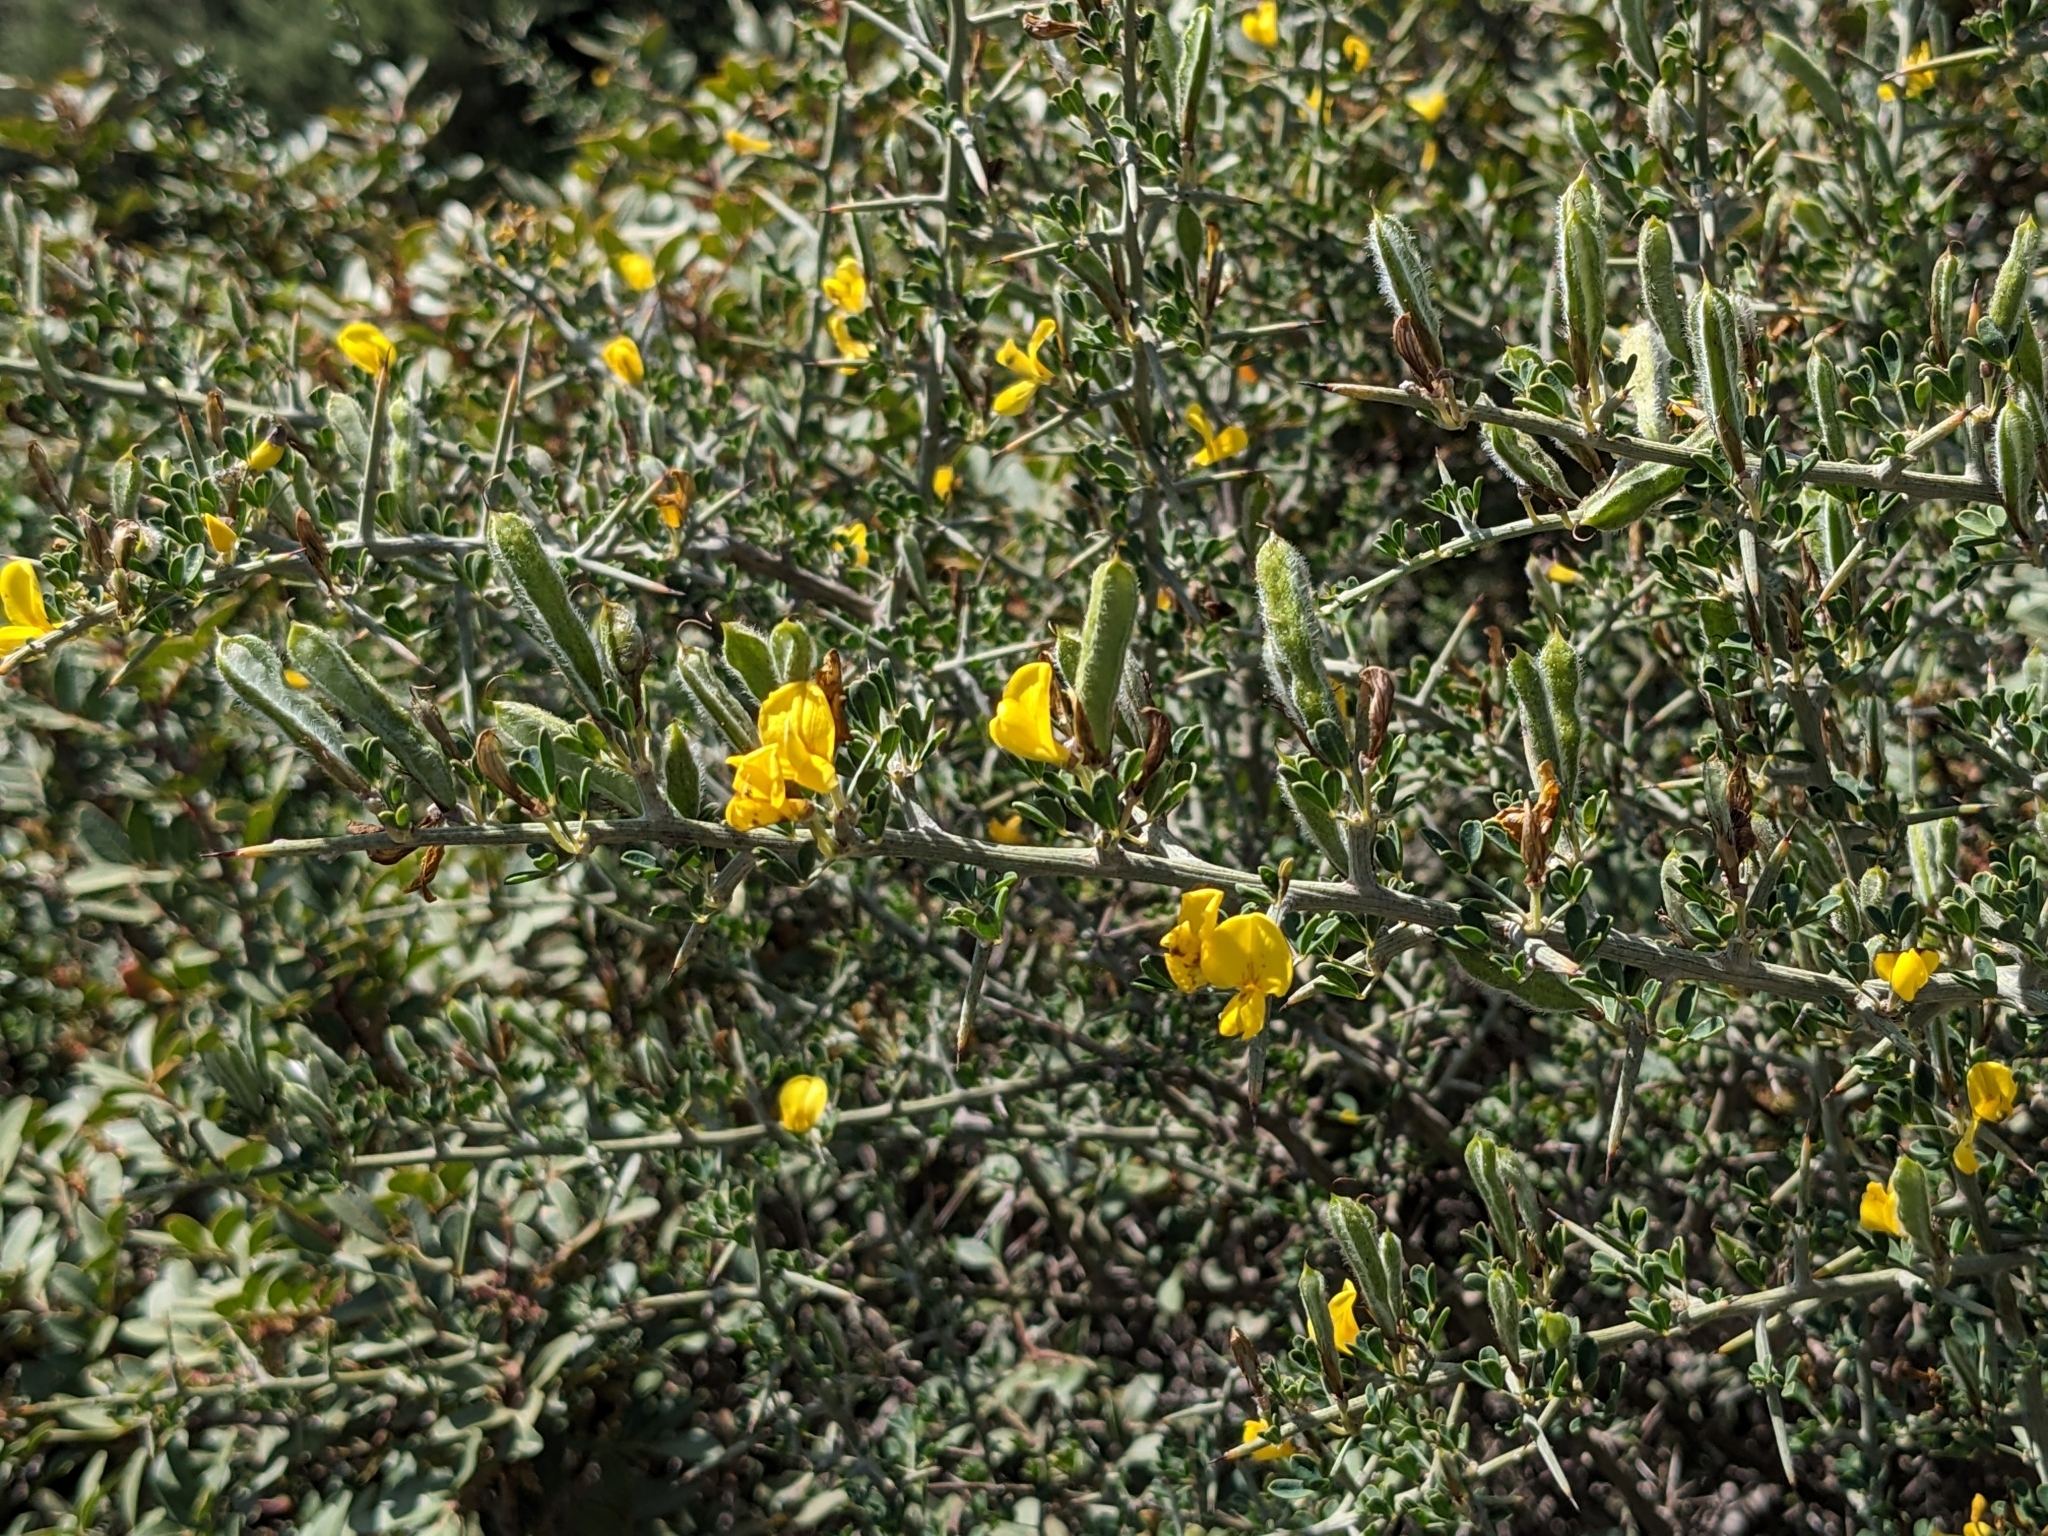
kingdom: Plantae
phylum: Tracheophyta
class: Magnoliopsida
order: Fabales
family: Fabaceae
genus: Calicotome
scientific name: Calicotome villosa
